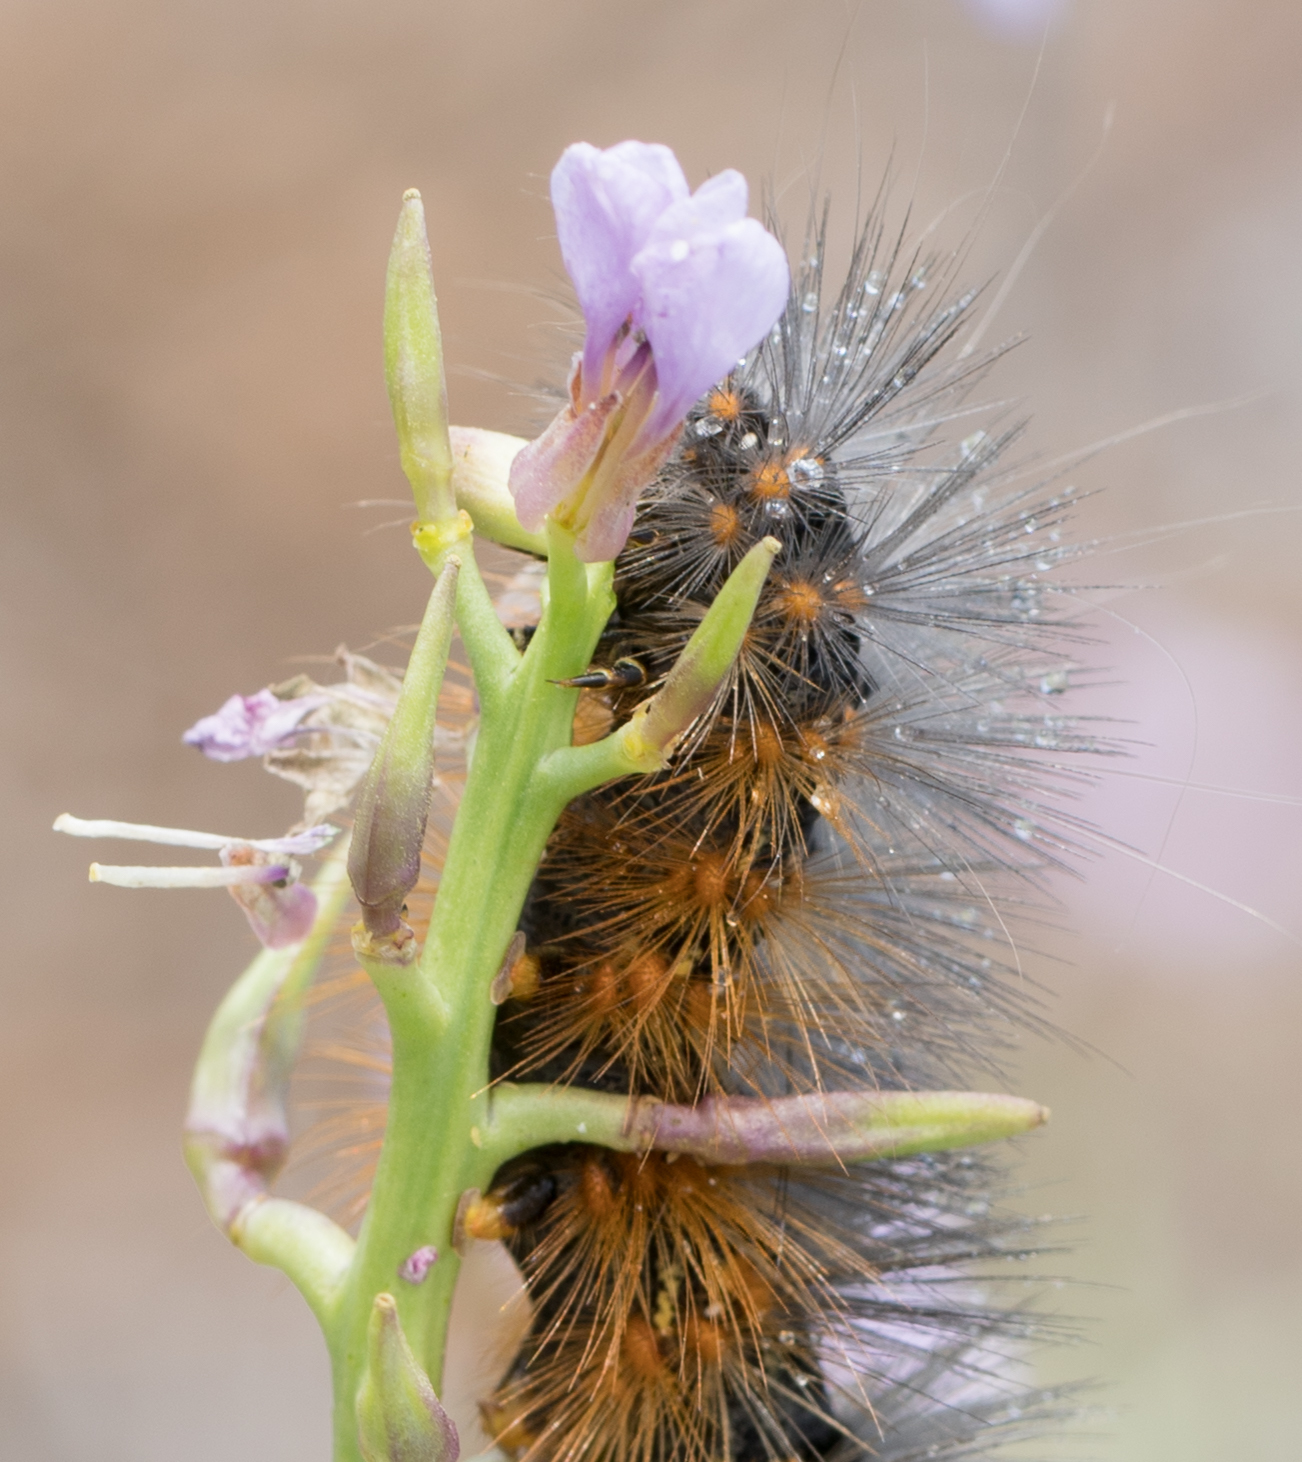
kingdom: Animalia
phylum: Arthropoda
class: Insecta
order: Lepidoptera
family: Erebidae
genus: Estigmene
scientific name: Estigmene acrea
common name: Salt marsh moth
